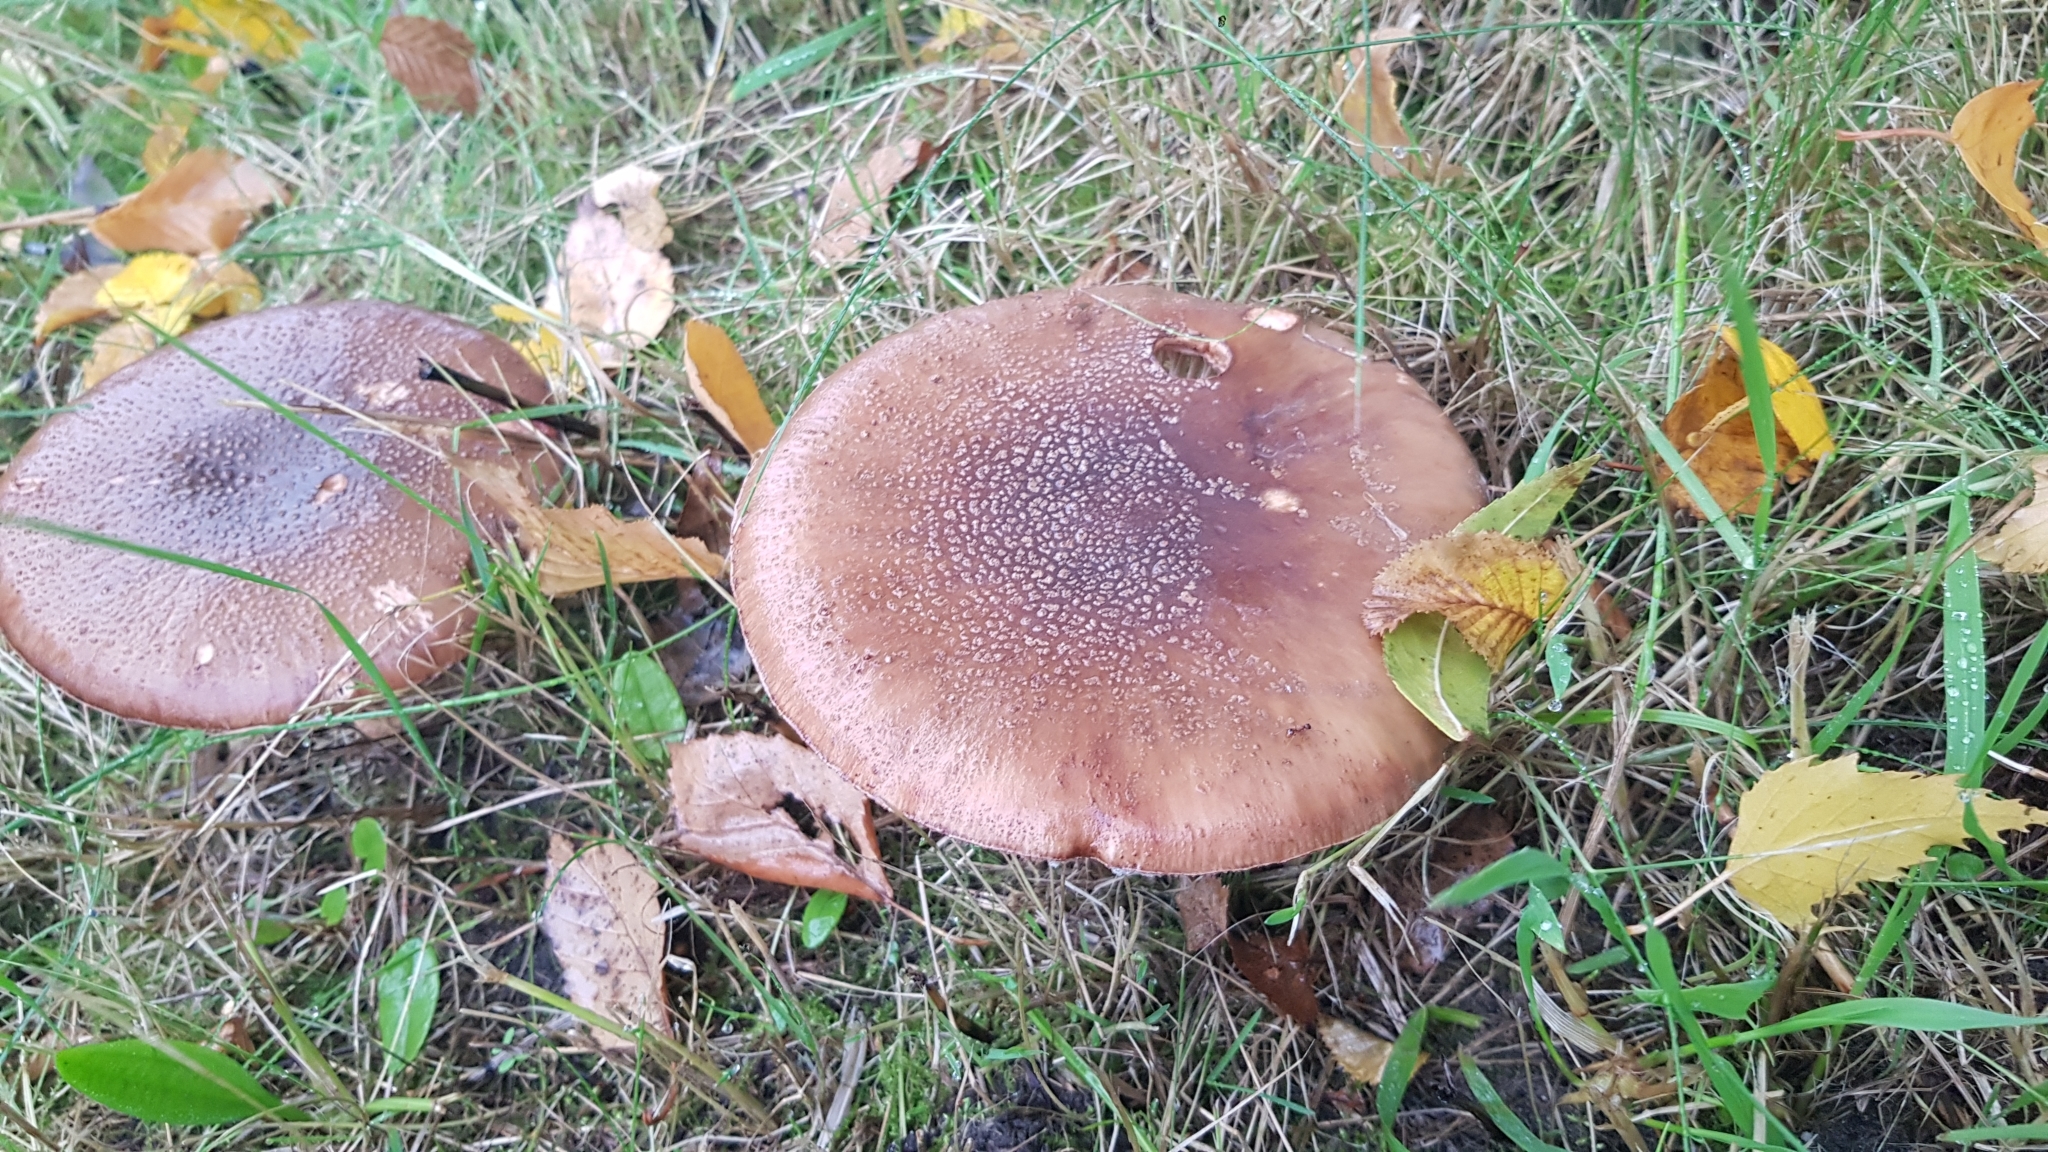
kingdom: Fungi
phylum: Basidiomycota
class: Agaricomycetes
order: Agaricales
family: Amanitaceae
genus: Amanita
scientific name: Amanita rubescens
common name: Blusher
